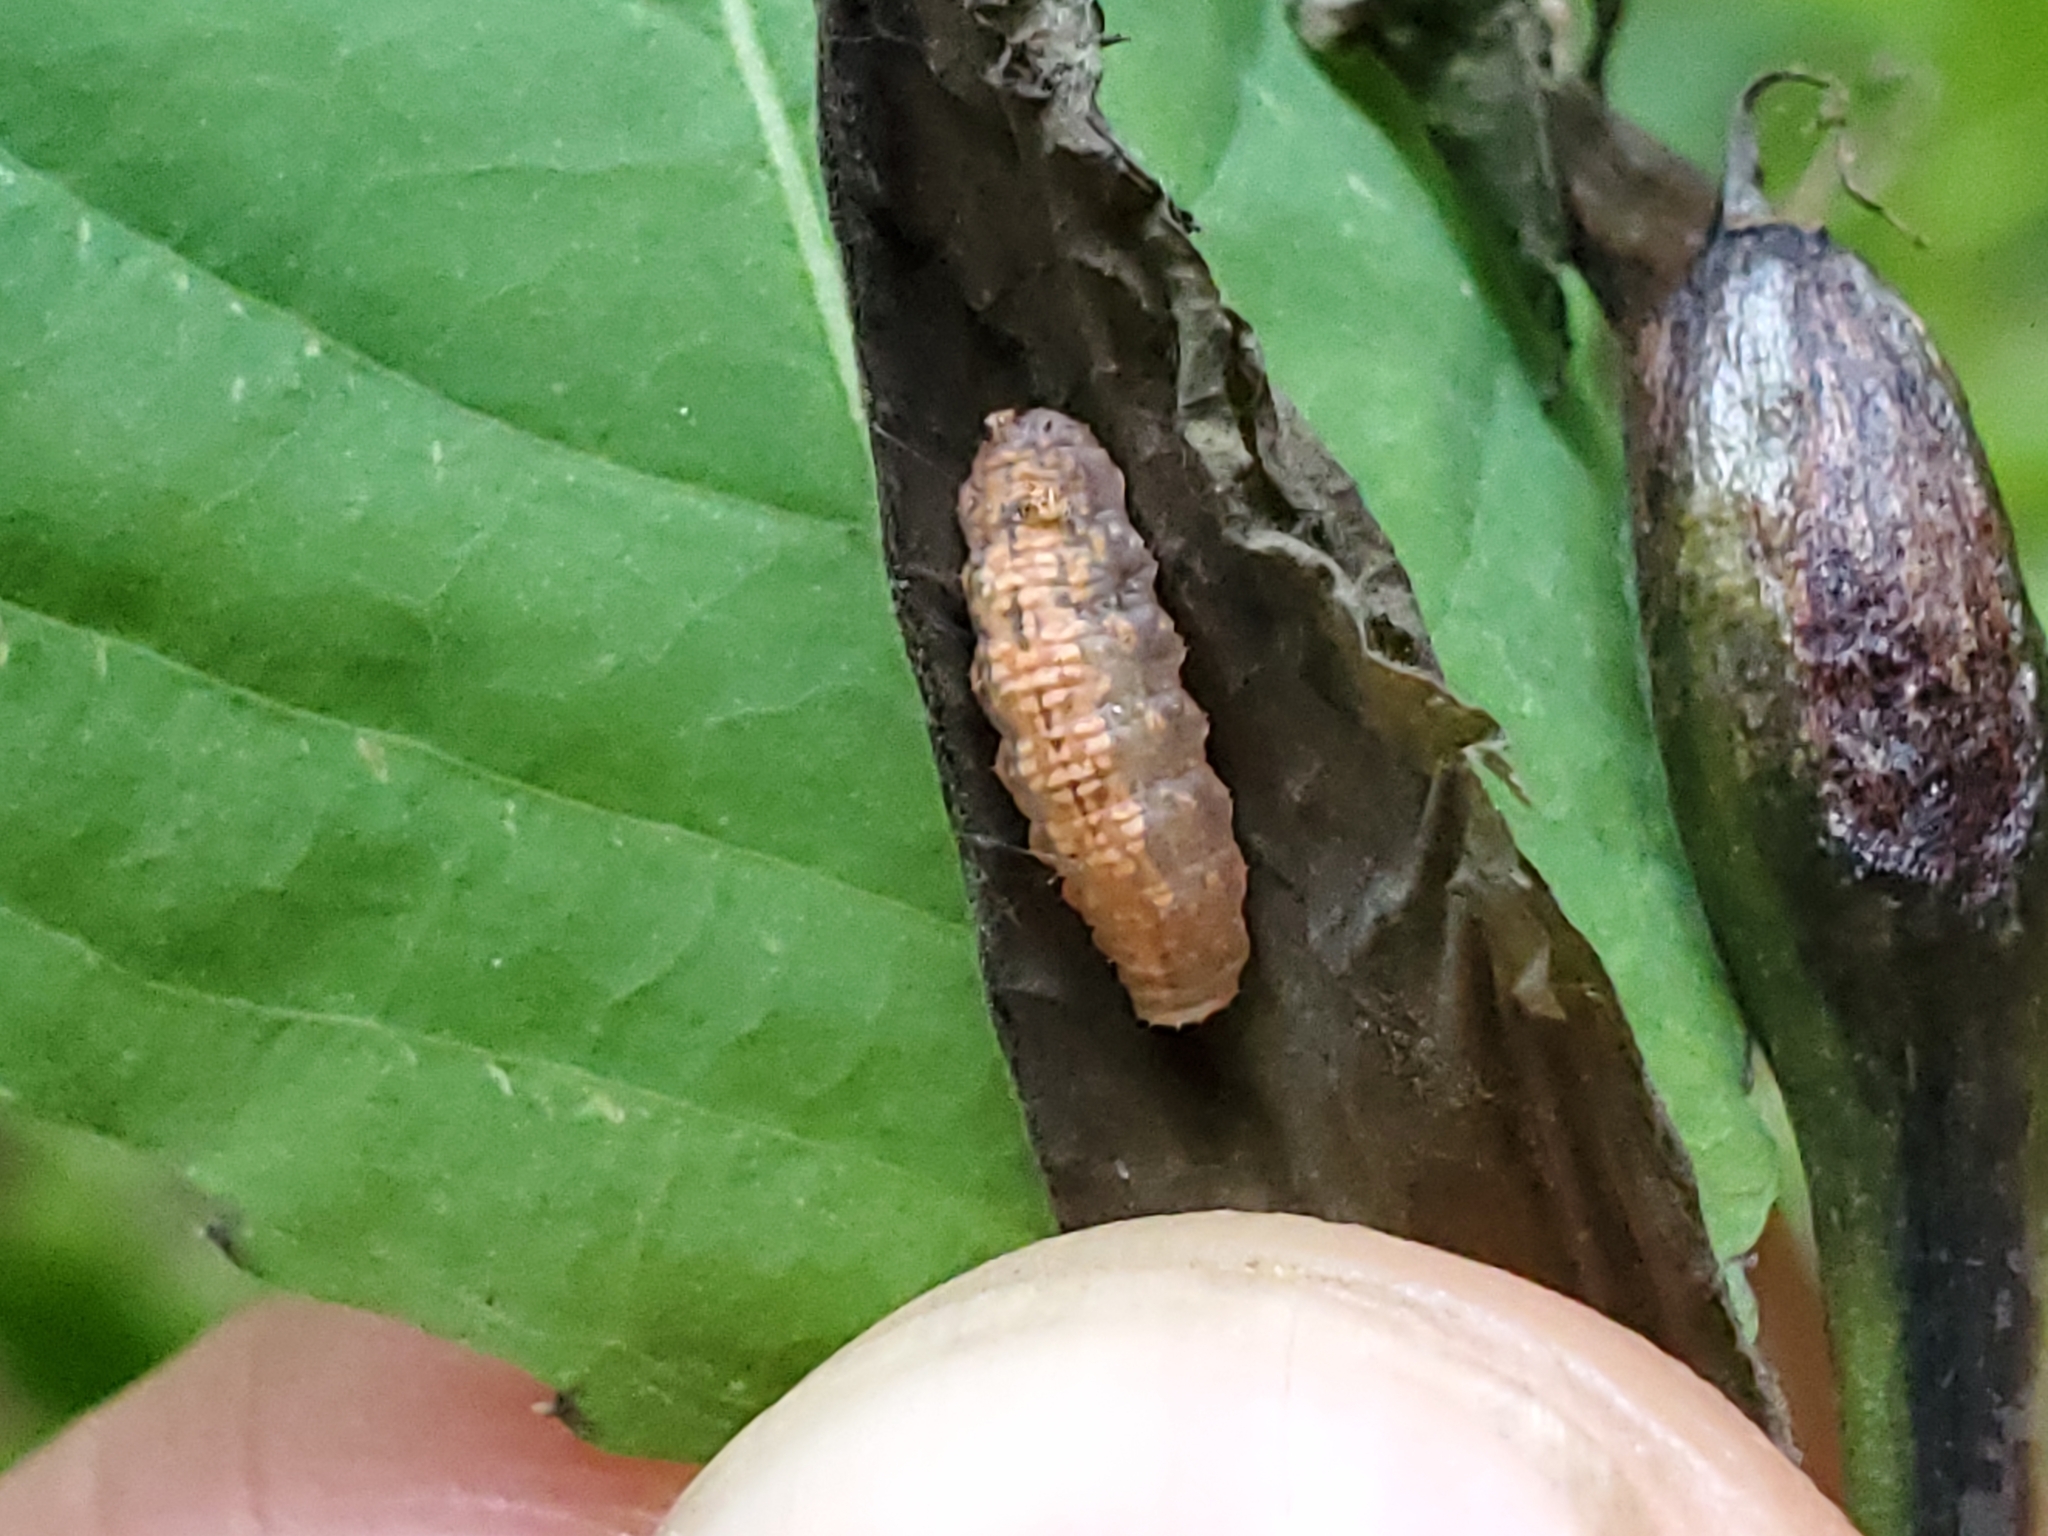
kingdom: Animalia
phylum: Arthropoda
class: Insecta
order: Diptera
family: Syrphidae
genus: Syrphus
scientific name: Syrphus
